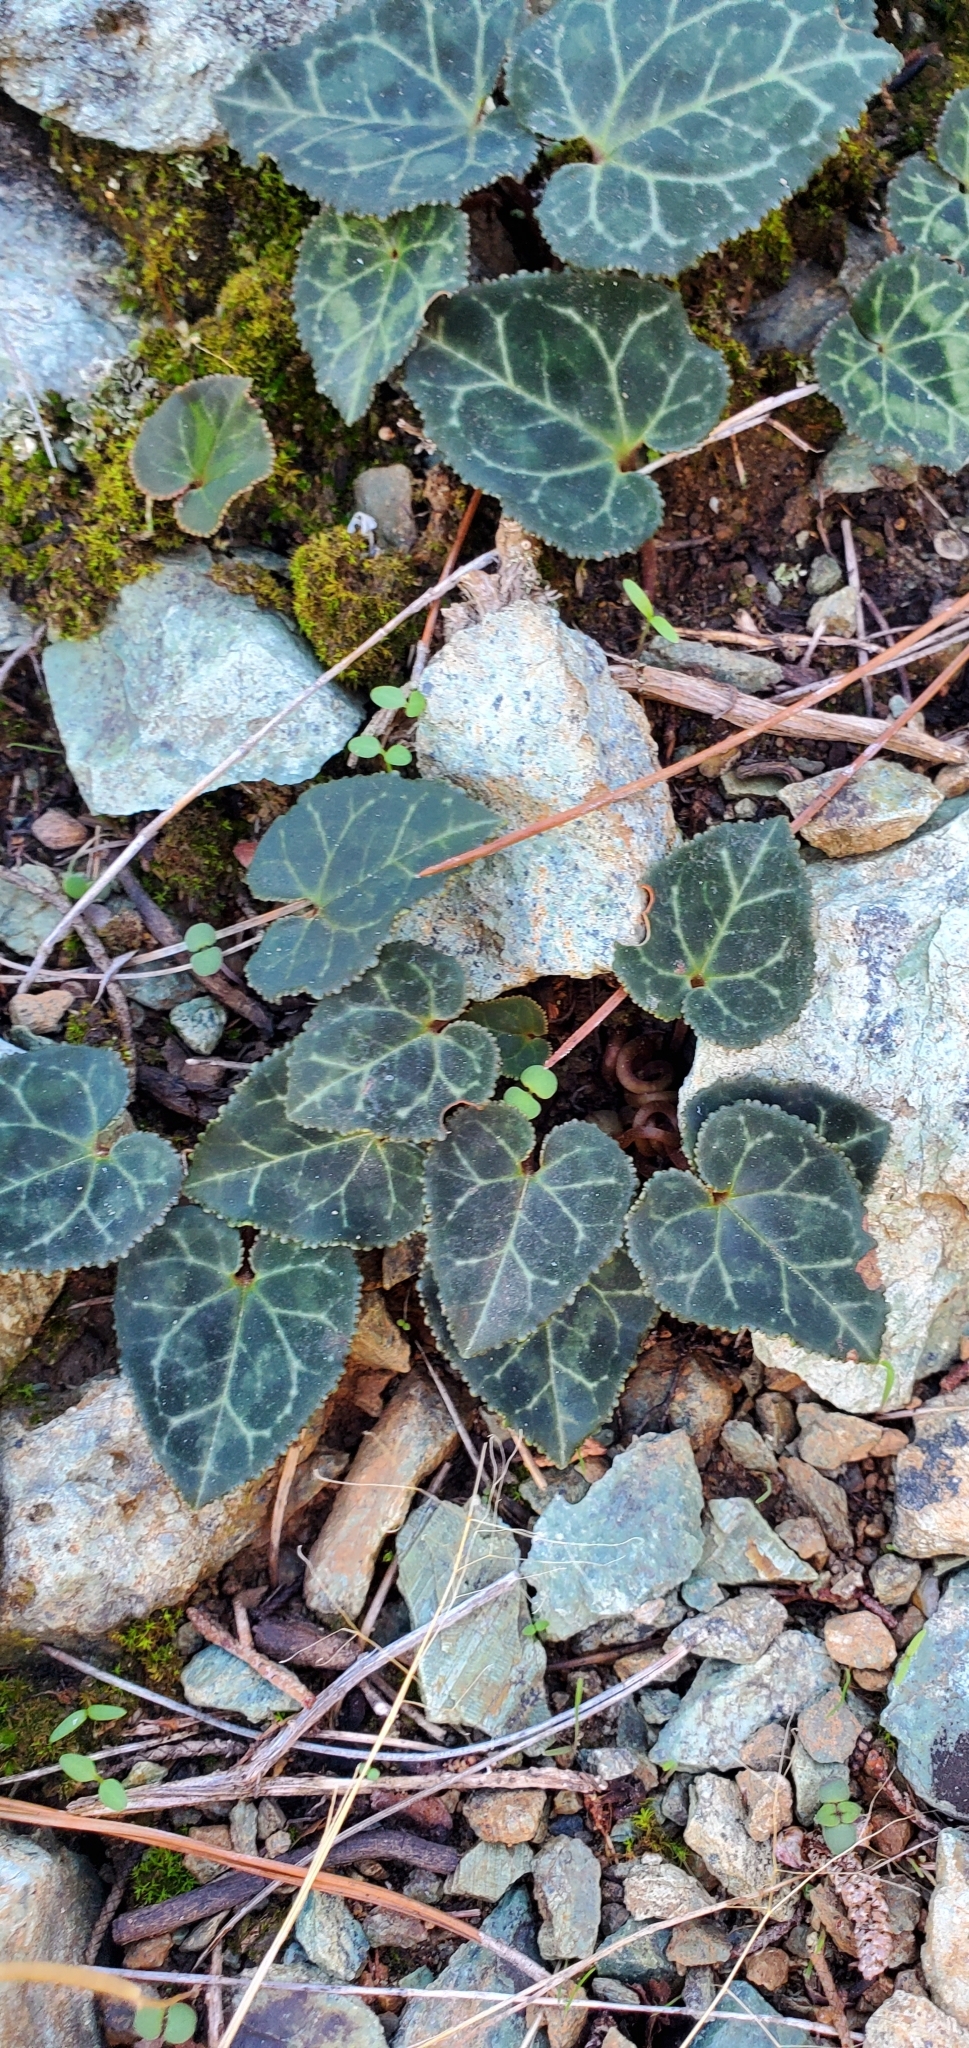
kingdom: Plantae
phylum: Tracheophyta
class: Magnoliopsida
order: Ericales
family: Primulaceae
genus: Cyclamen
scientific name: Cyclamen graecum
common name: Greek cyclamen
